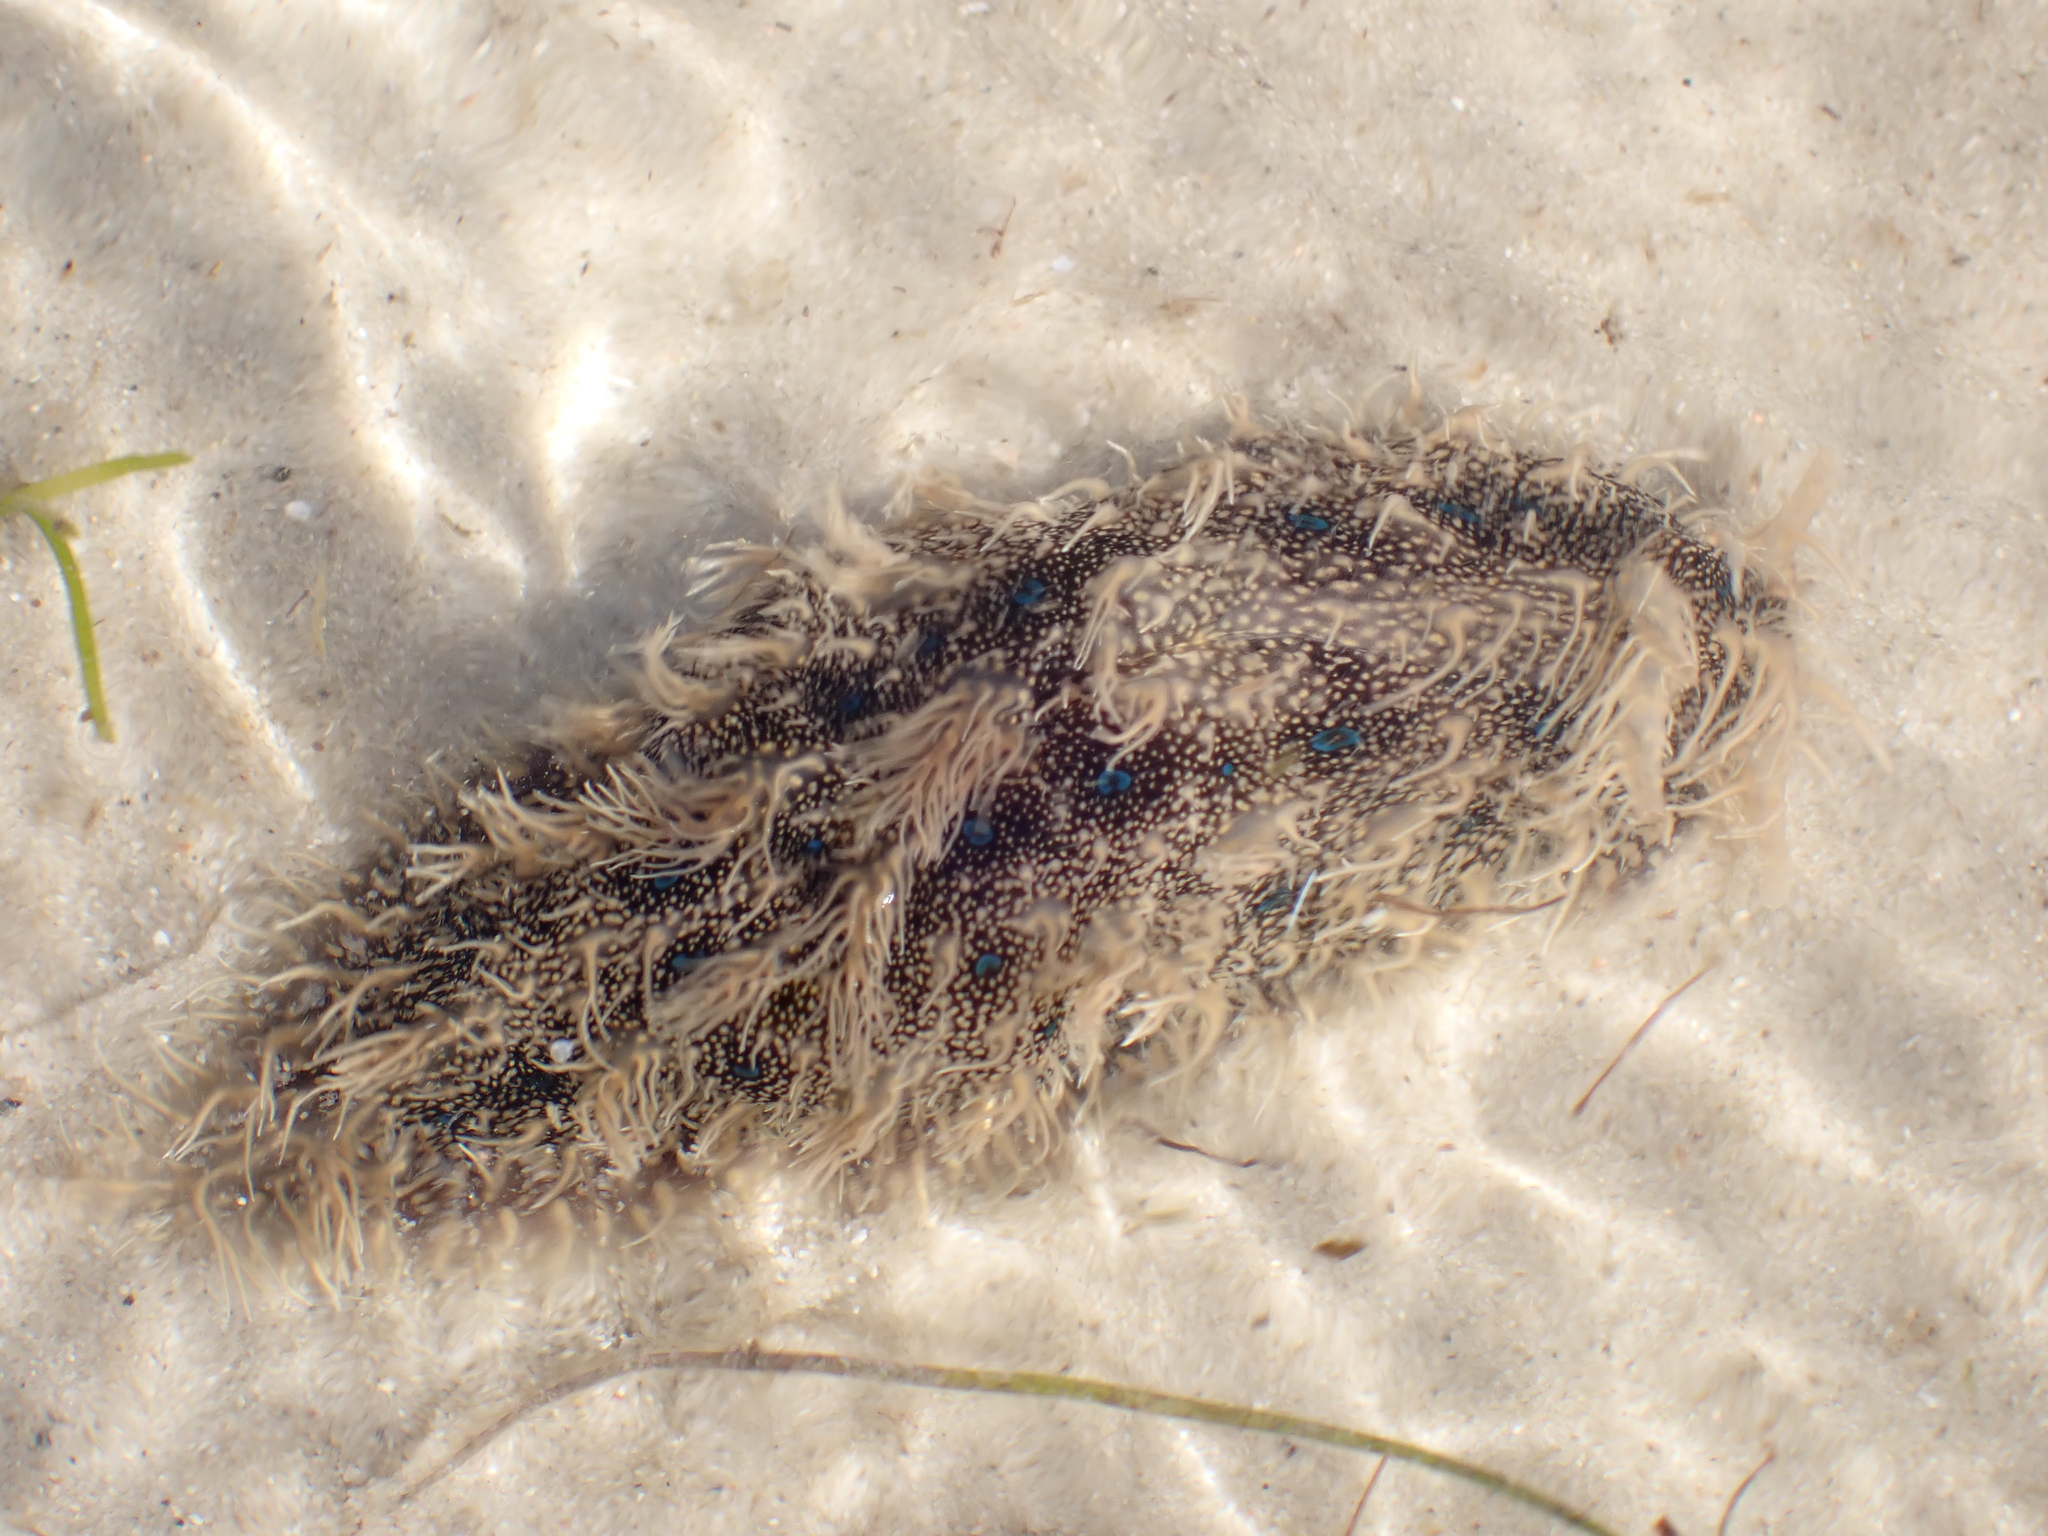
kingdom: Animalia
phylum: Mollusca
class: Gastropoda
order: Aplysiida
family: Aplysiidae
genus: Bursatella
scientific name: Bursatella leachii
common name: Shaggy sea hare
